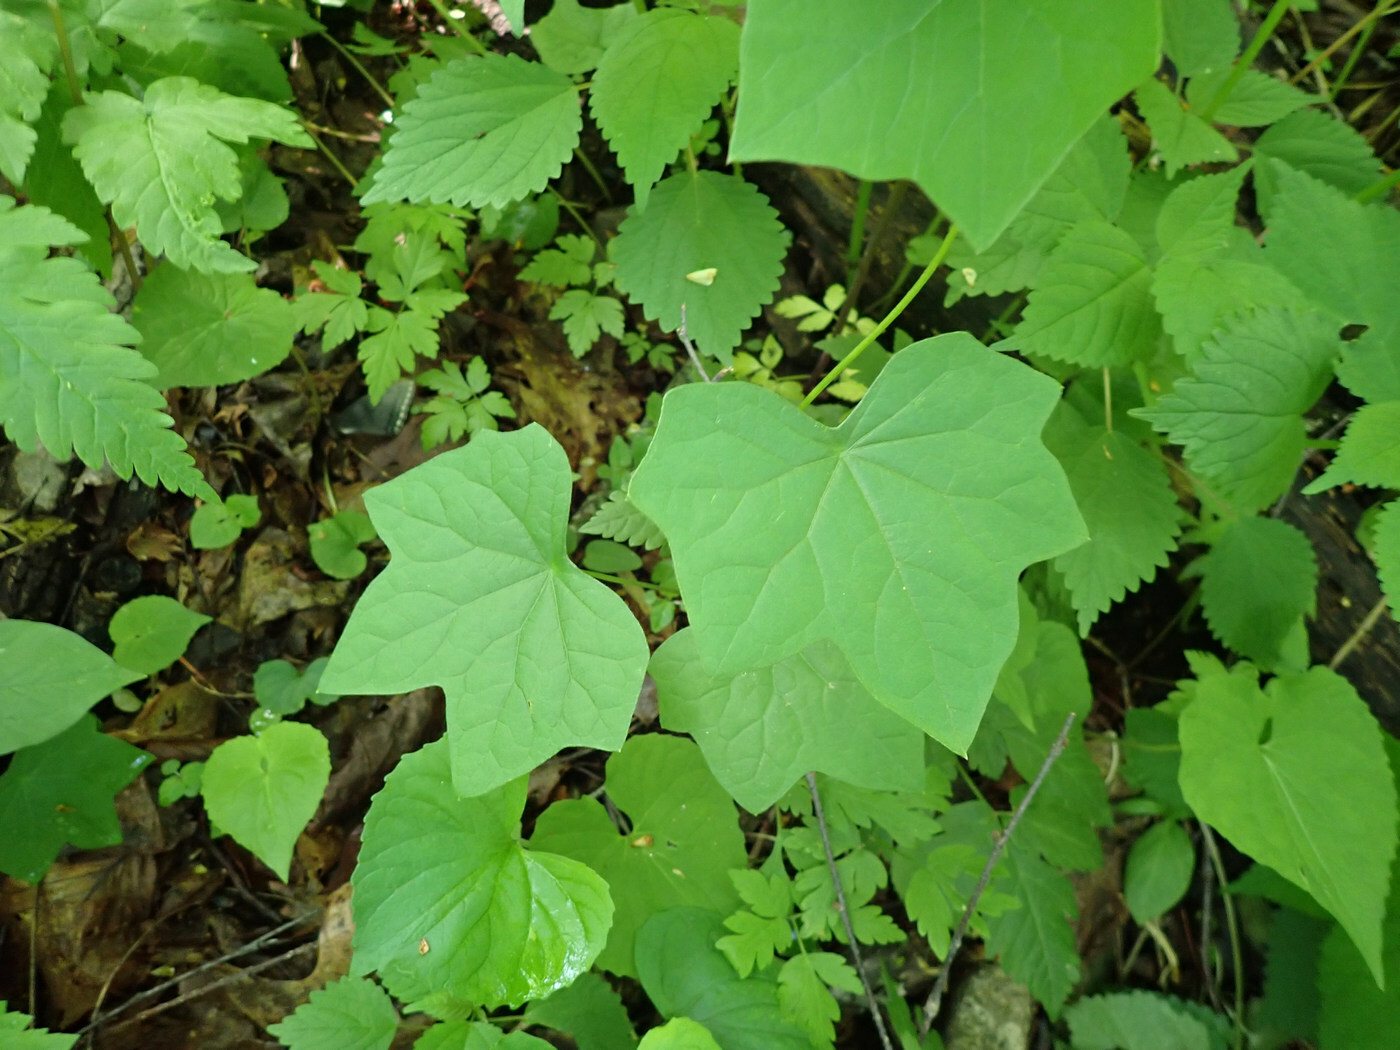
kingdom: Plantae
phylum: Tracheophyta
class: Magnoliopsida
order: Ranunculales
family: Menispermaceae
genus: Menispermum
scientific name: Menispermum canadense
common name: Moonseed
